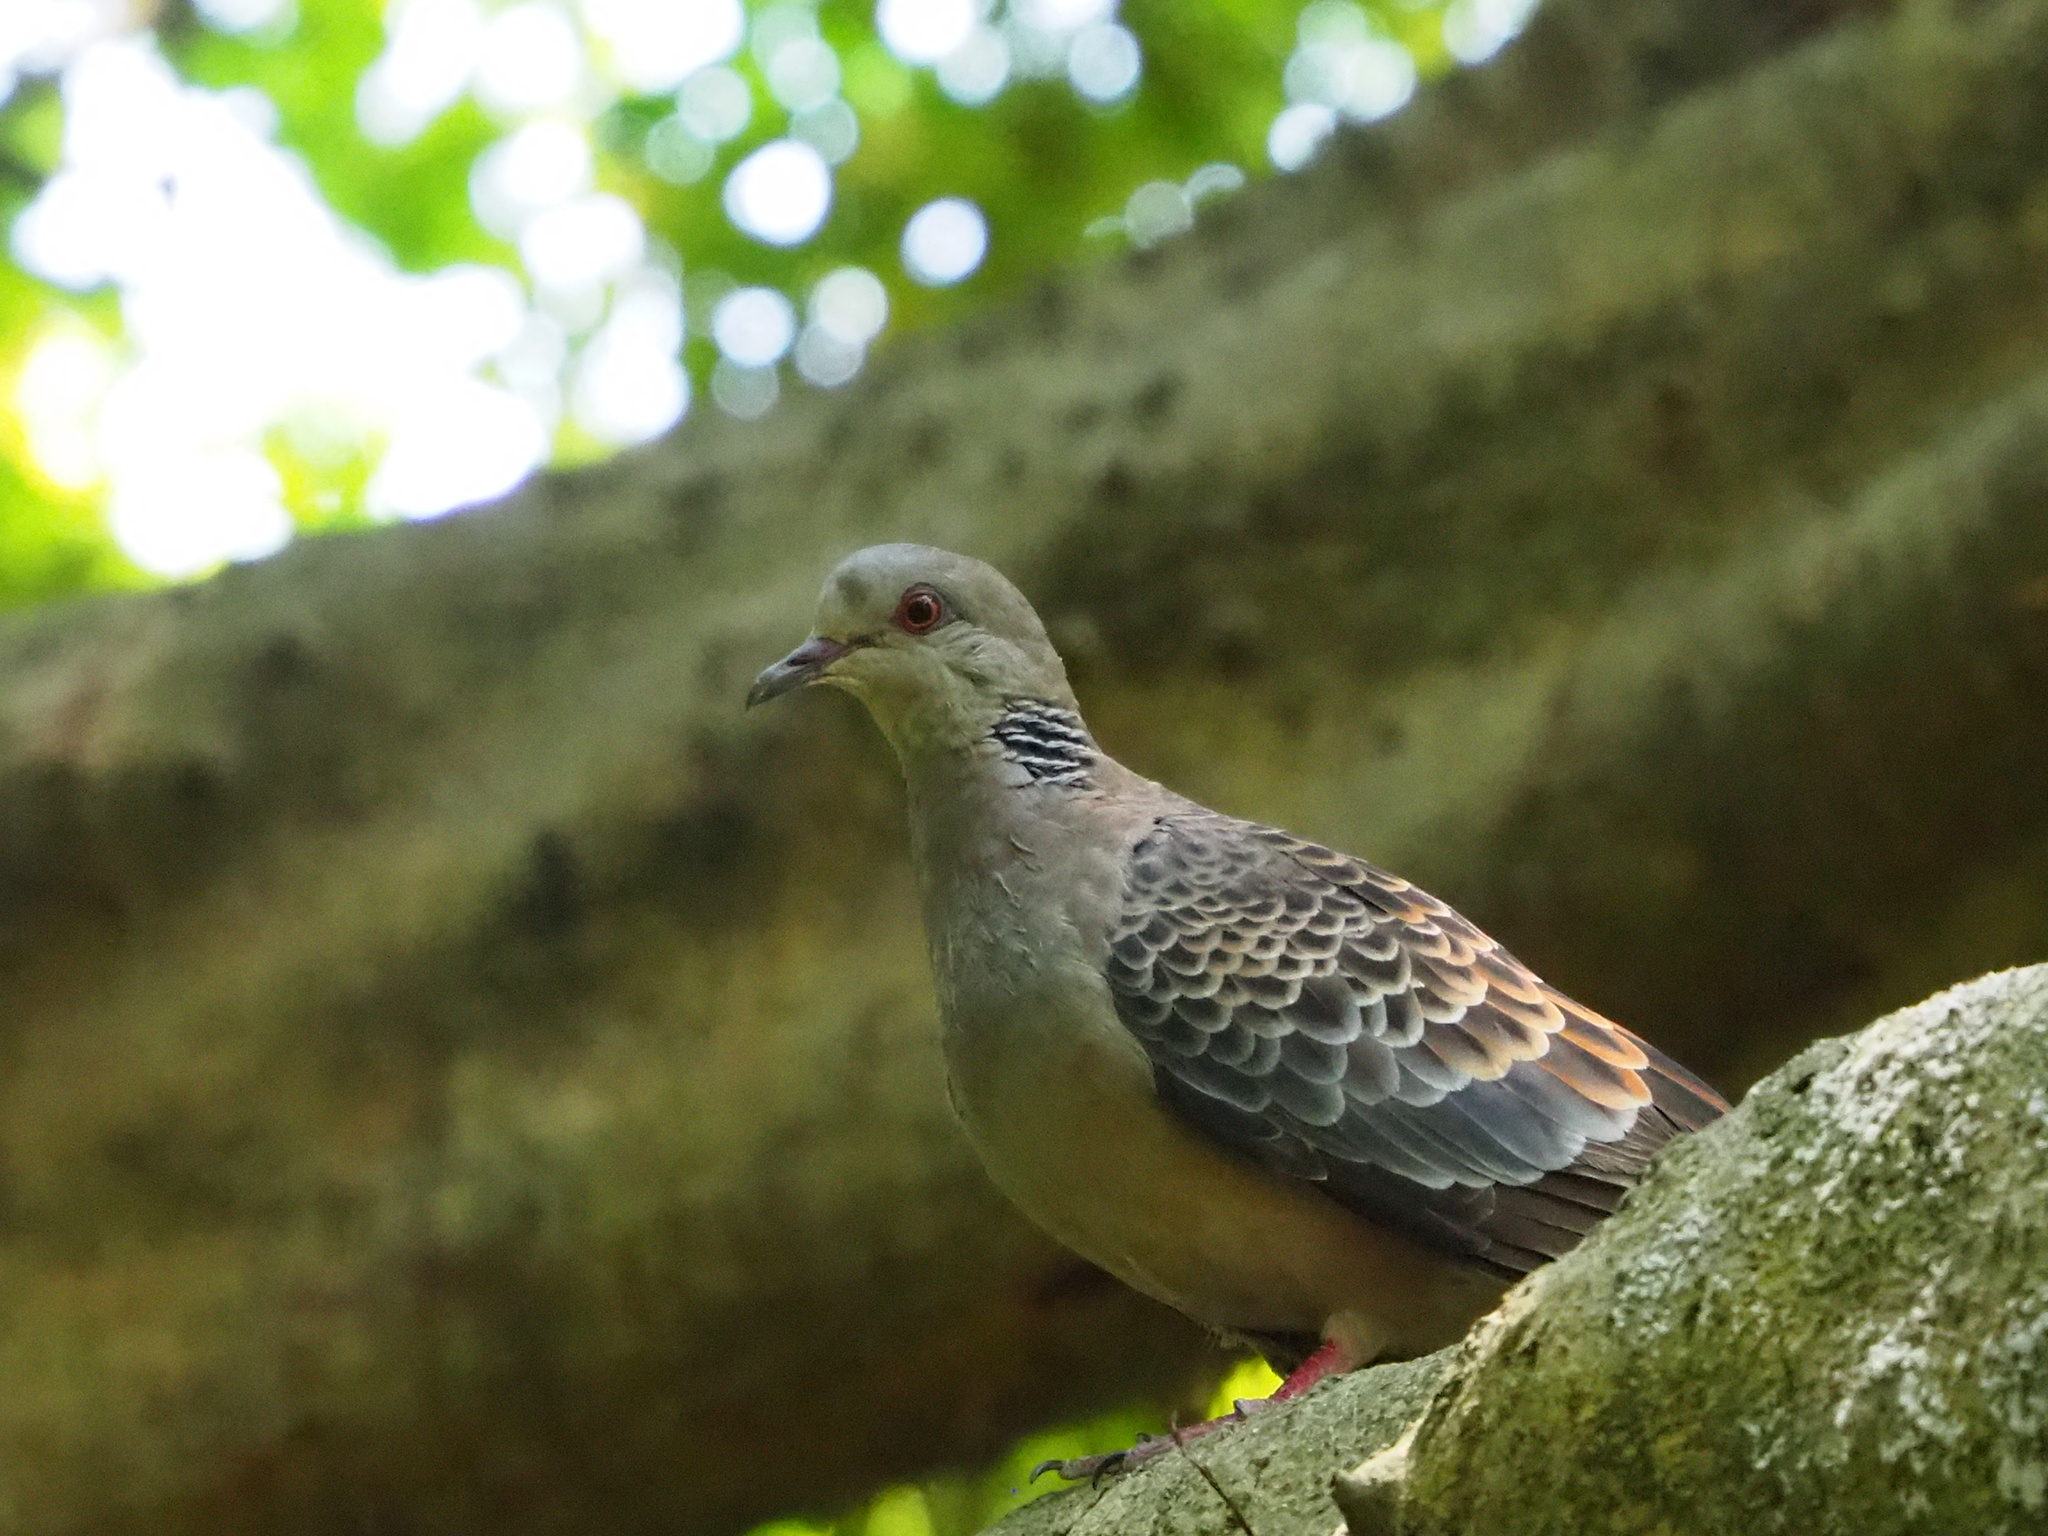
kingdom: Animalia
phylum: Chordata
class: Aves
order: Columbiformes
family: Columbidae
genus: Streptopelia
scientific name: Streptopelia orientalis
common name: Oriental turtle dove
